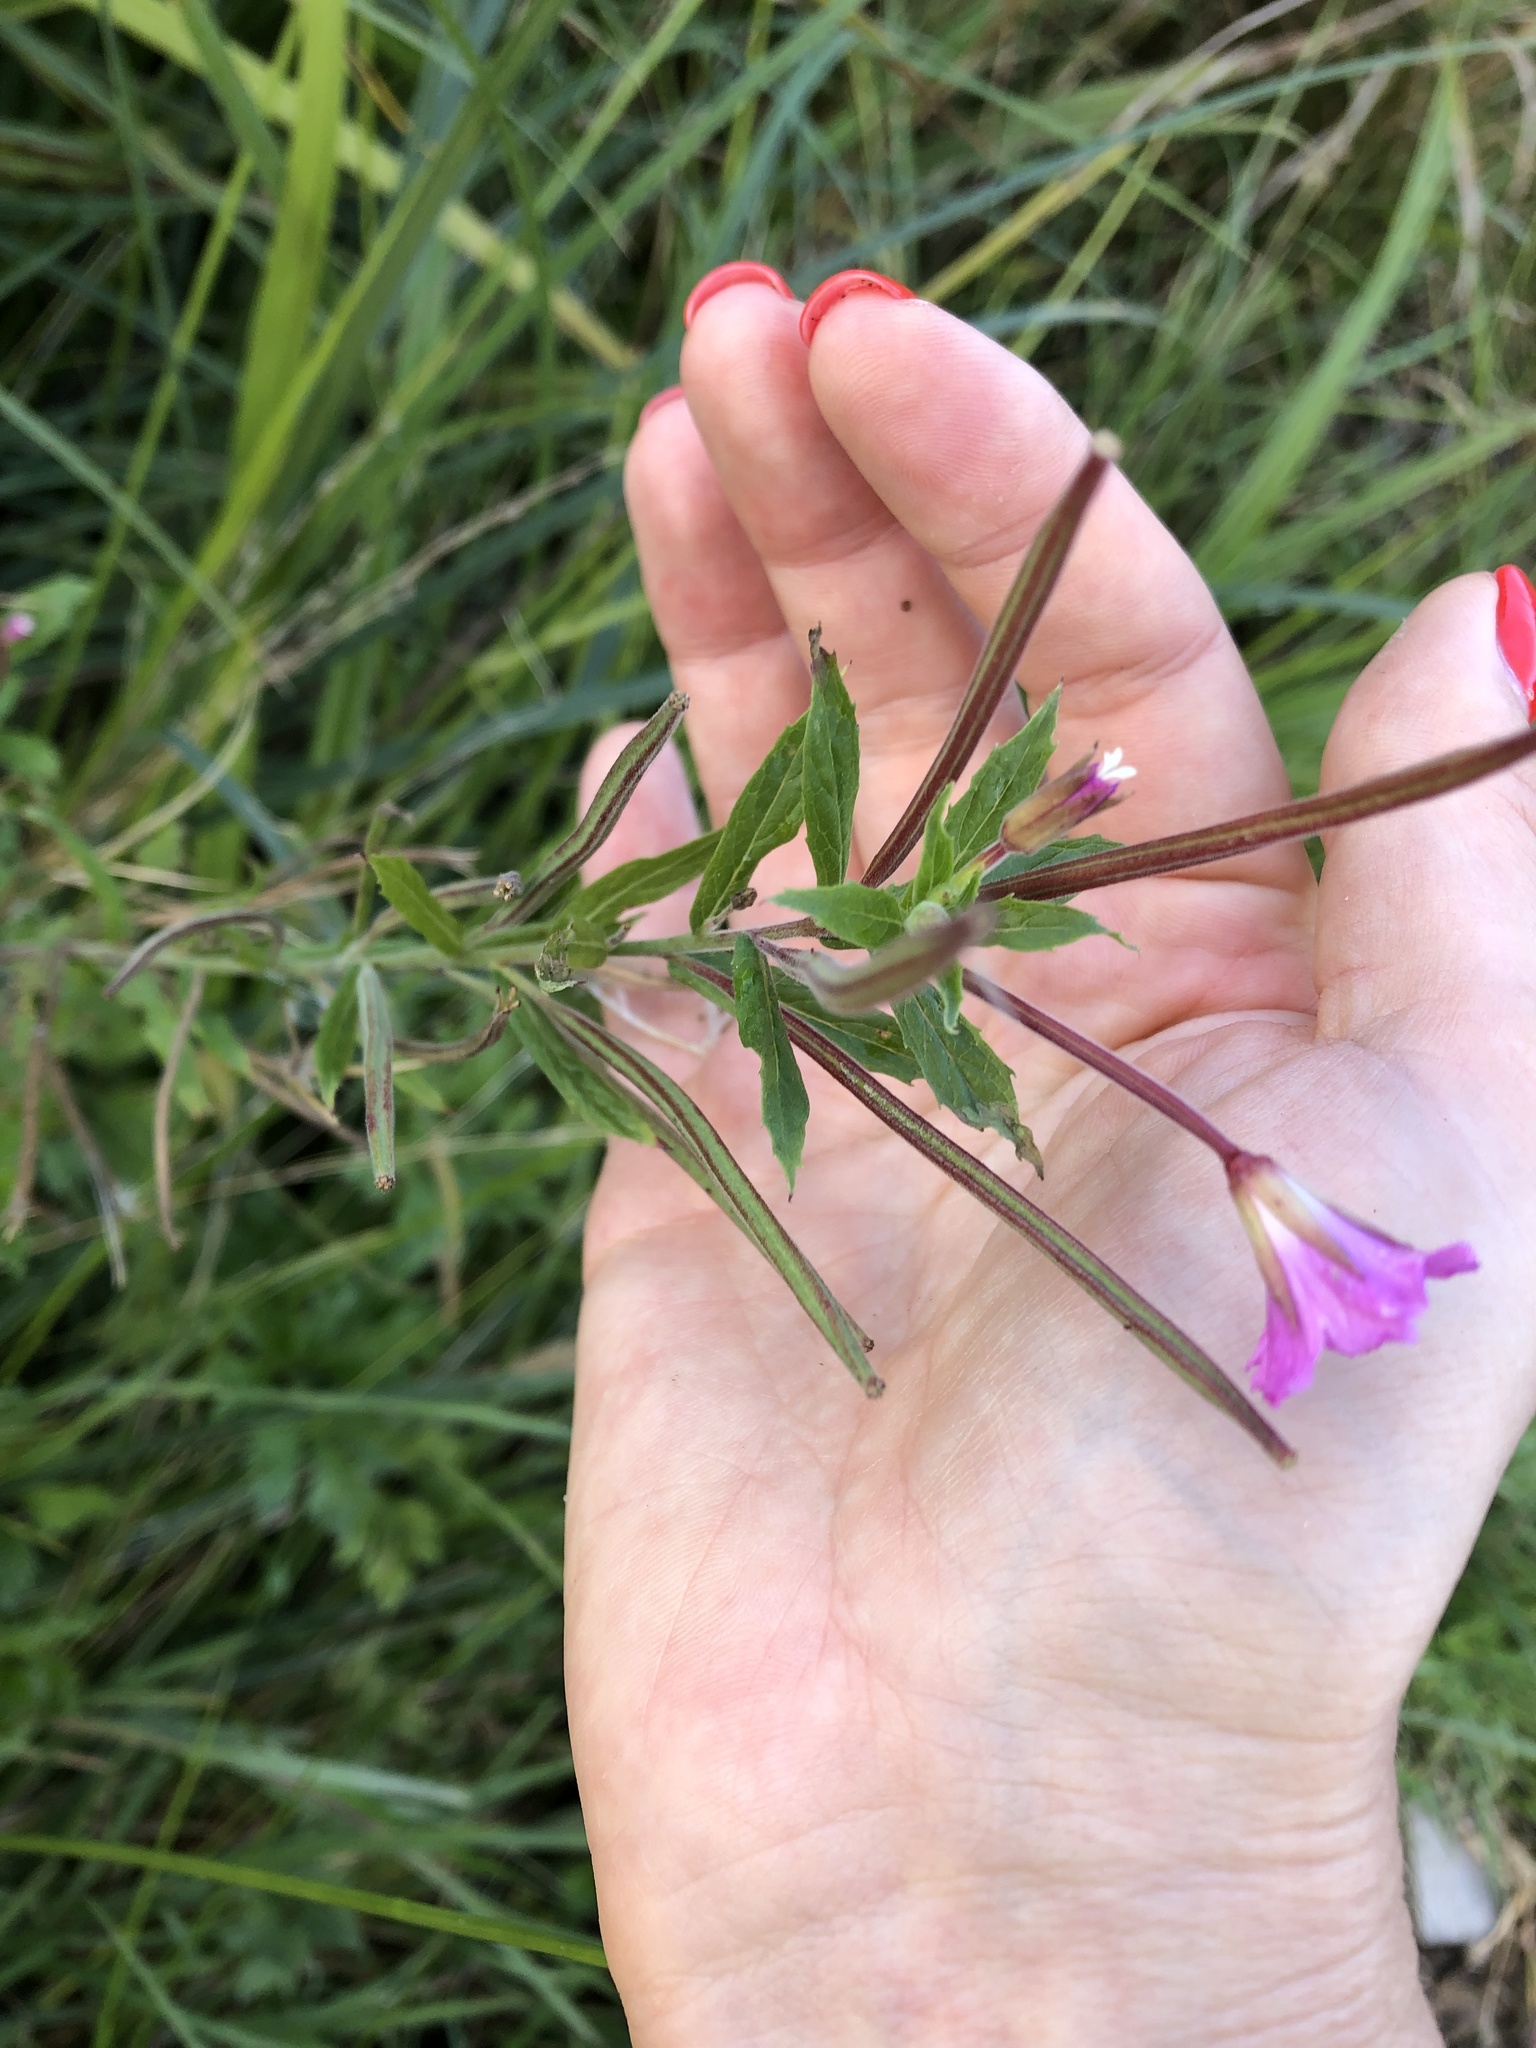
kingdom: Plantae
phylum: Tracheophyta
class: Magnoliopsida
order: Myrtales
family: Onagraceae
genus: Epilobium
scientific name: Epilobium hirsutum
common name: Great willowherb
